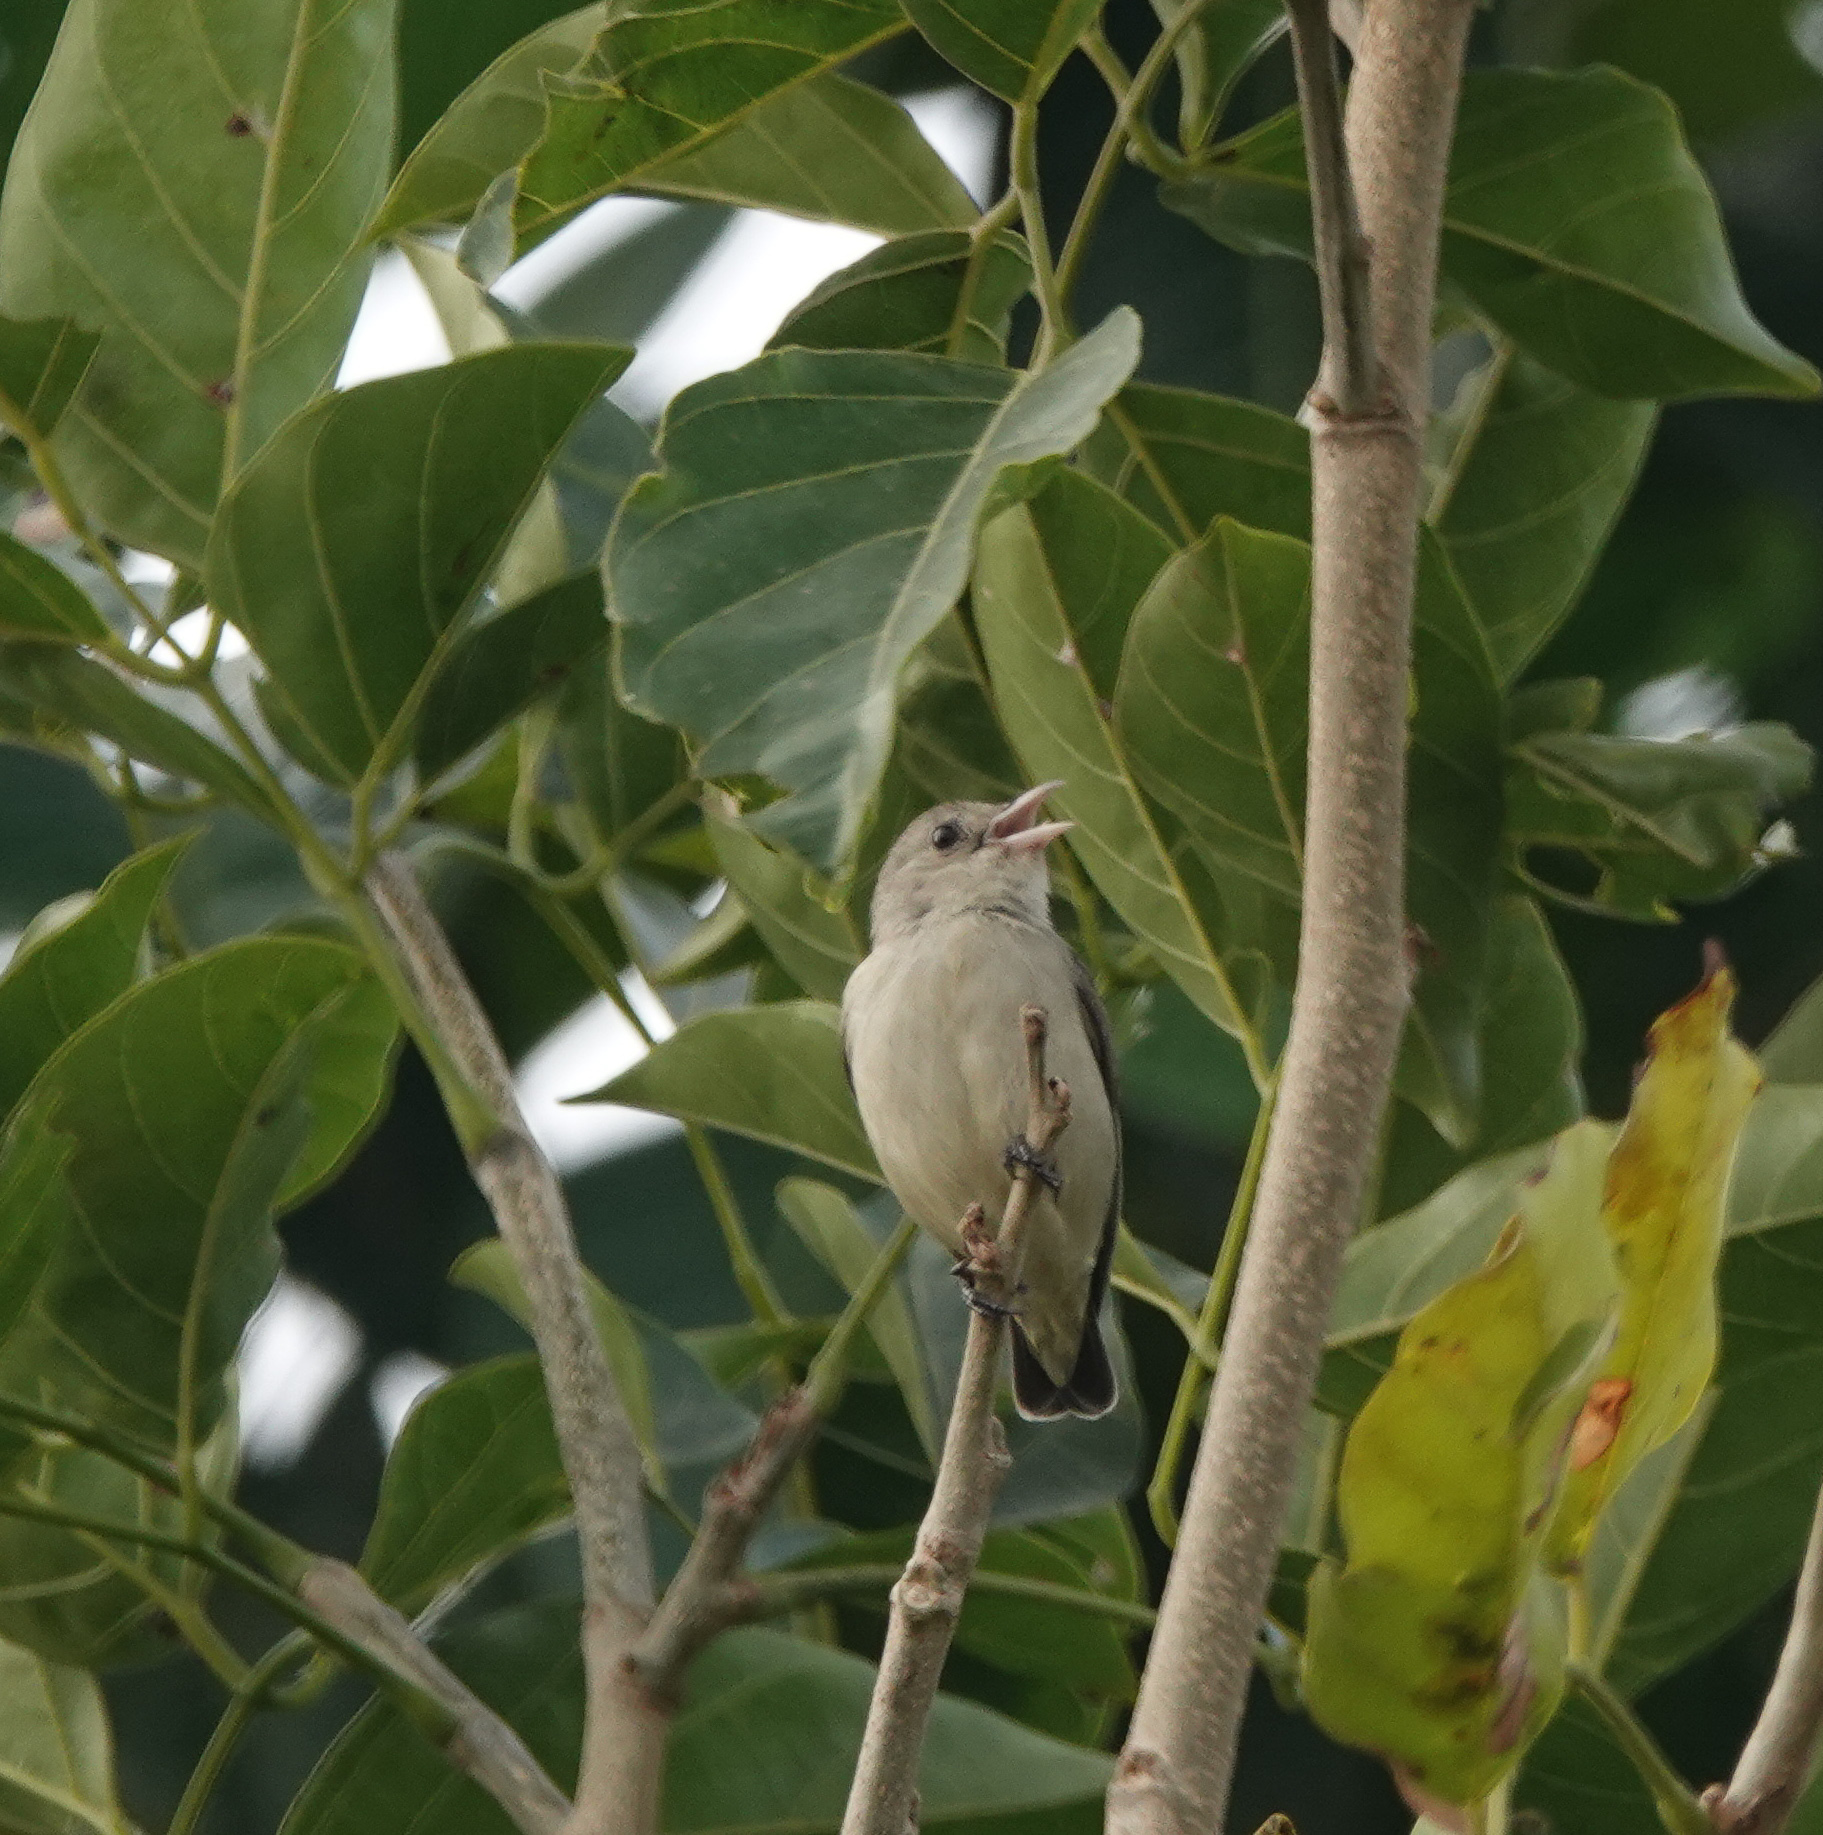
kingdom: Animalia
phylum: Chordata
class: Aves
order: Passeriformes
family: Dicaeidae
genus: Dicaeum
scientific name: Dicaeum erythrorhynchos
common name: Pale-billed flowerpecker
